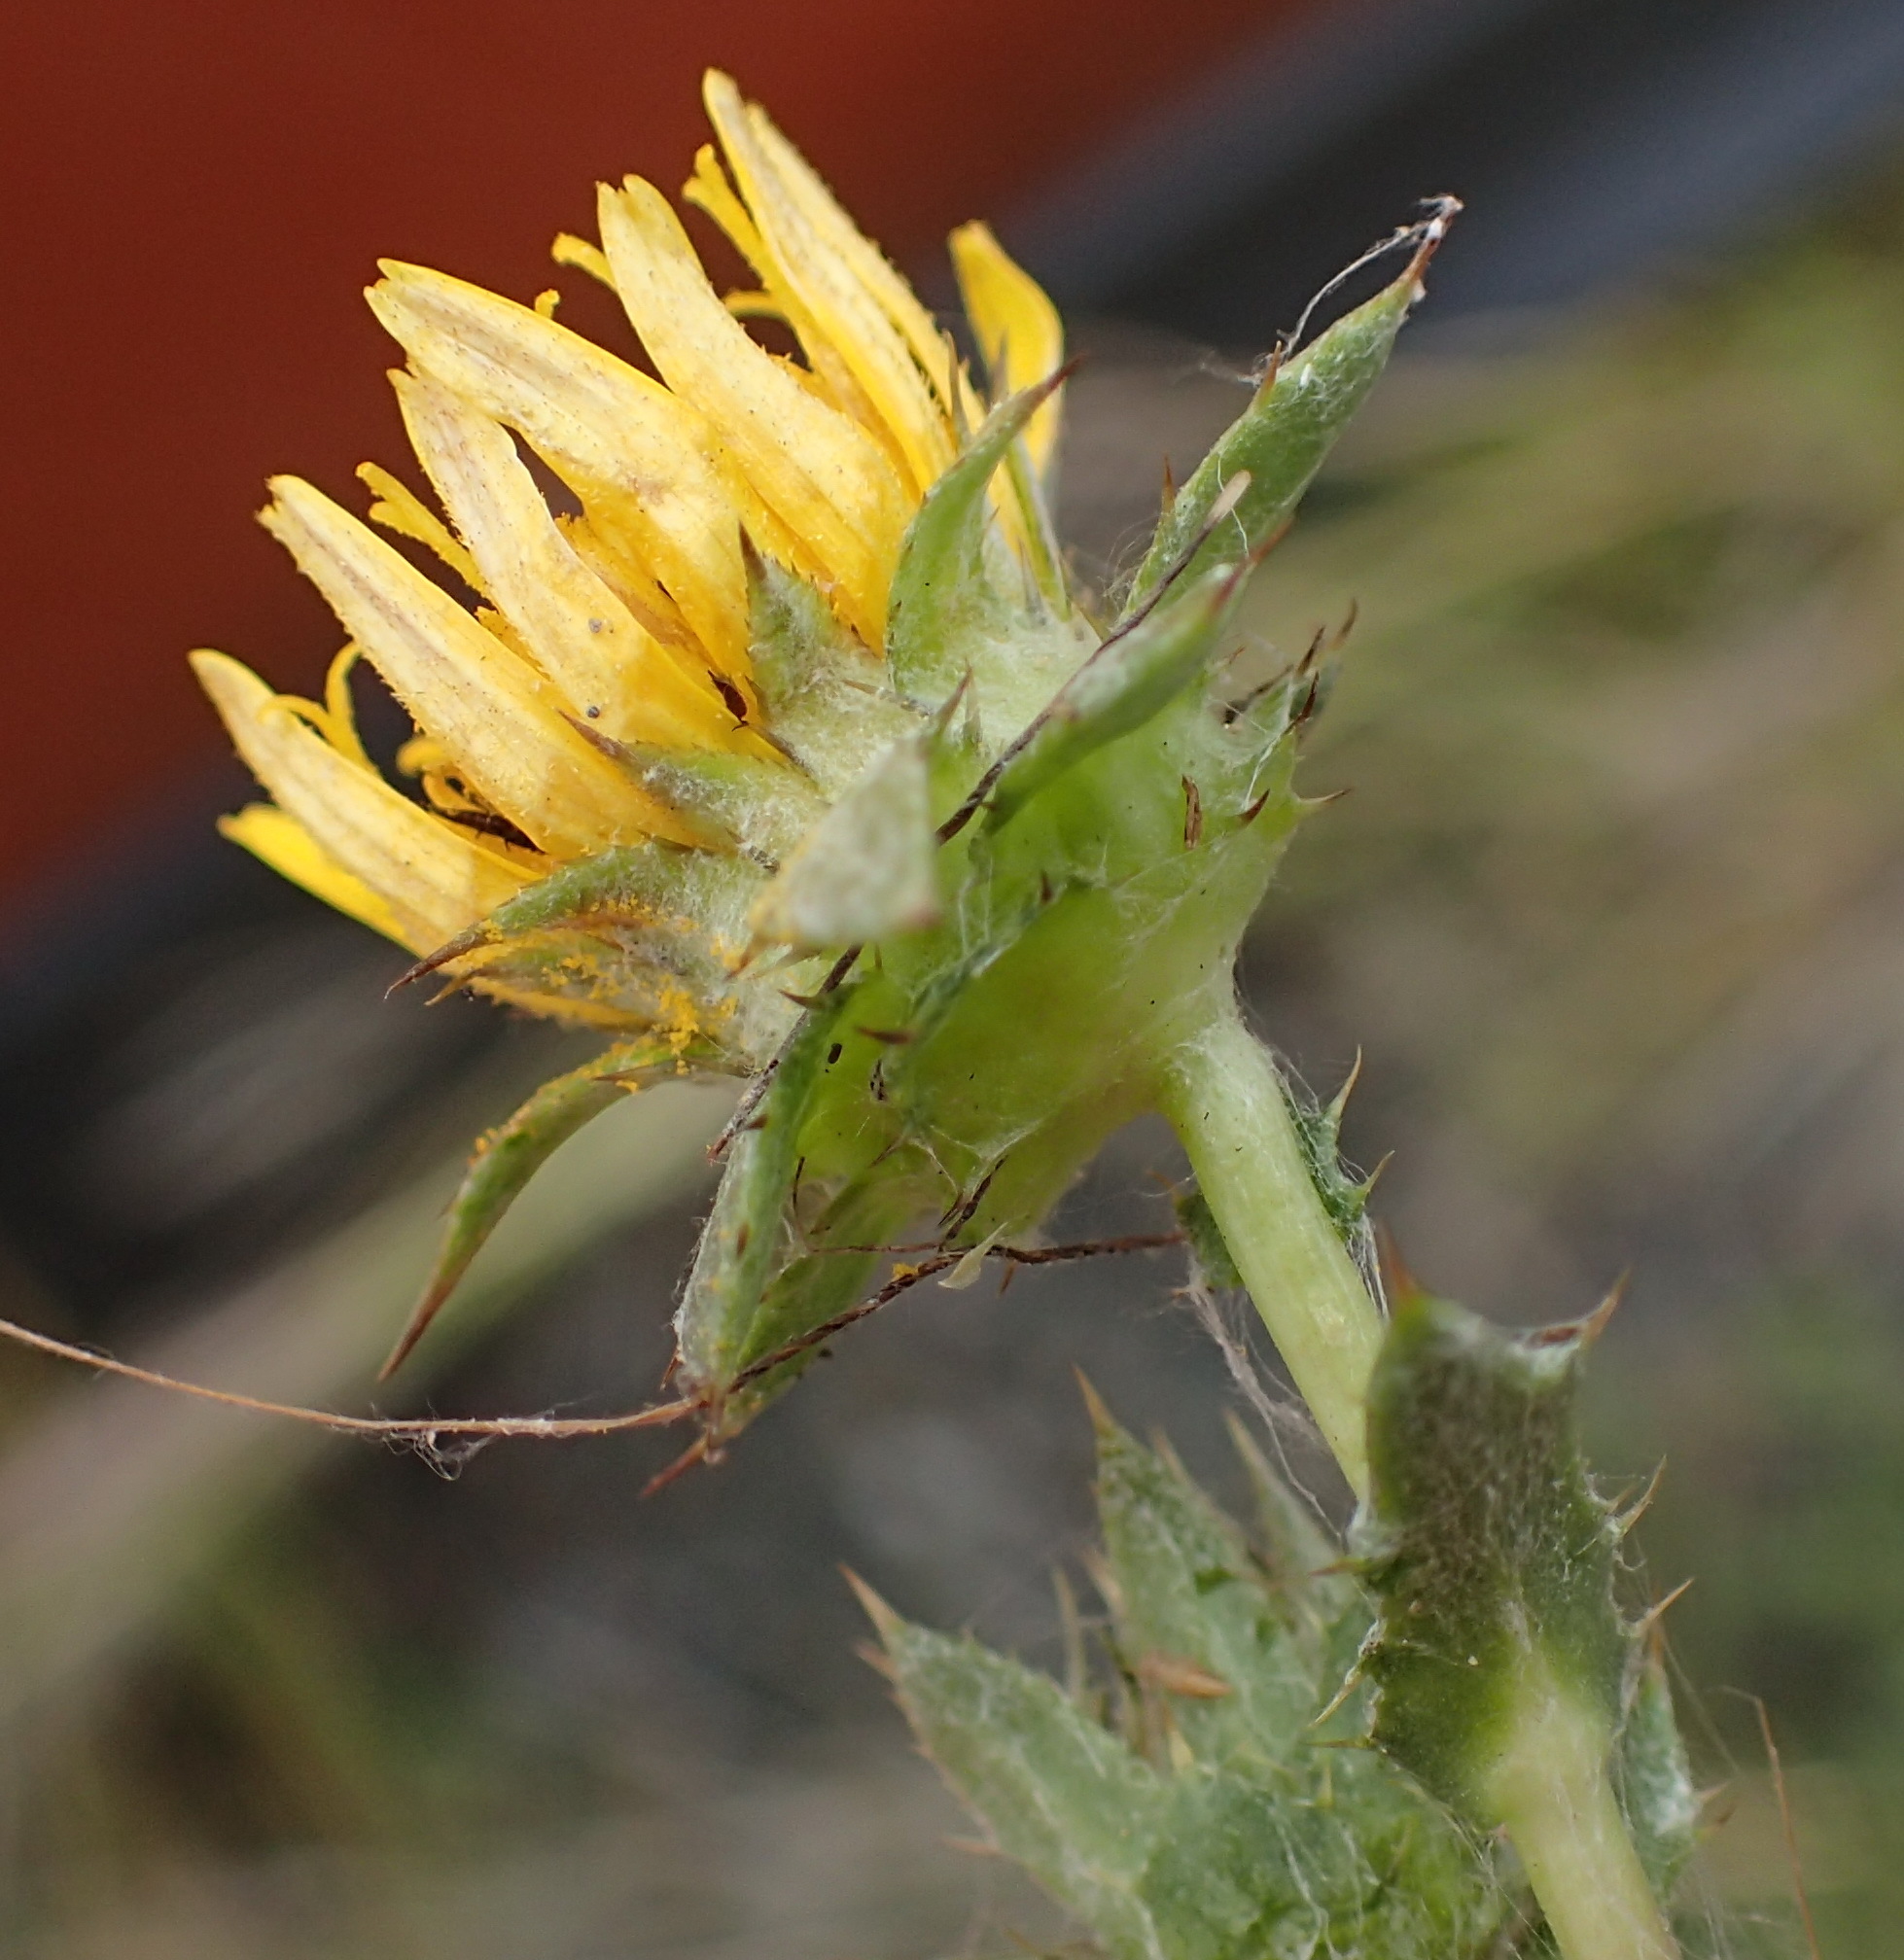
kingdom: Plantae
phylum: Tracheophyta
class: Magnoliopsida
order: Asterales
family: Asteraceae
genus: Cuspidia
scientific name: Cuspidia cernua
